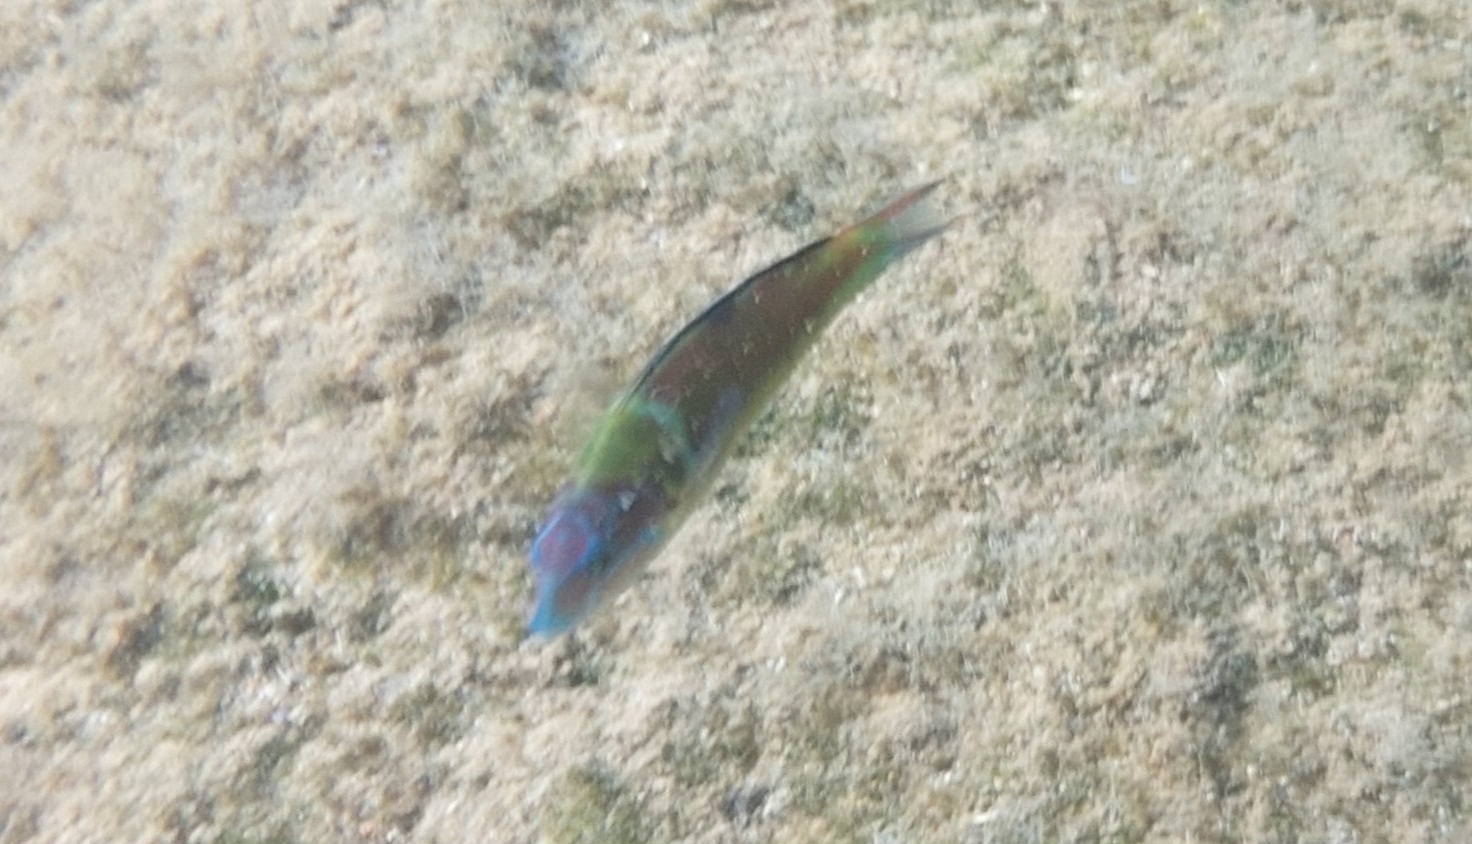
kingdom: Animalia
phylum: Chordata
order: Perciformes
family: Labridae
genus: Thalassoma
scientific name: Thalassoma pavo
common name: Ornate wrasse
